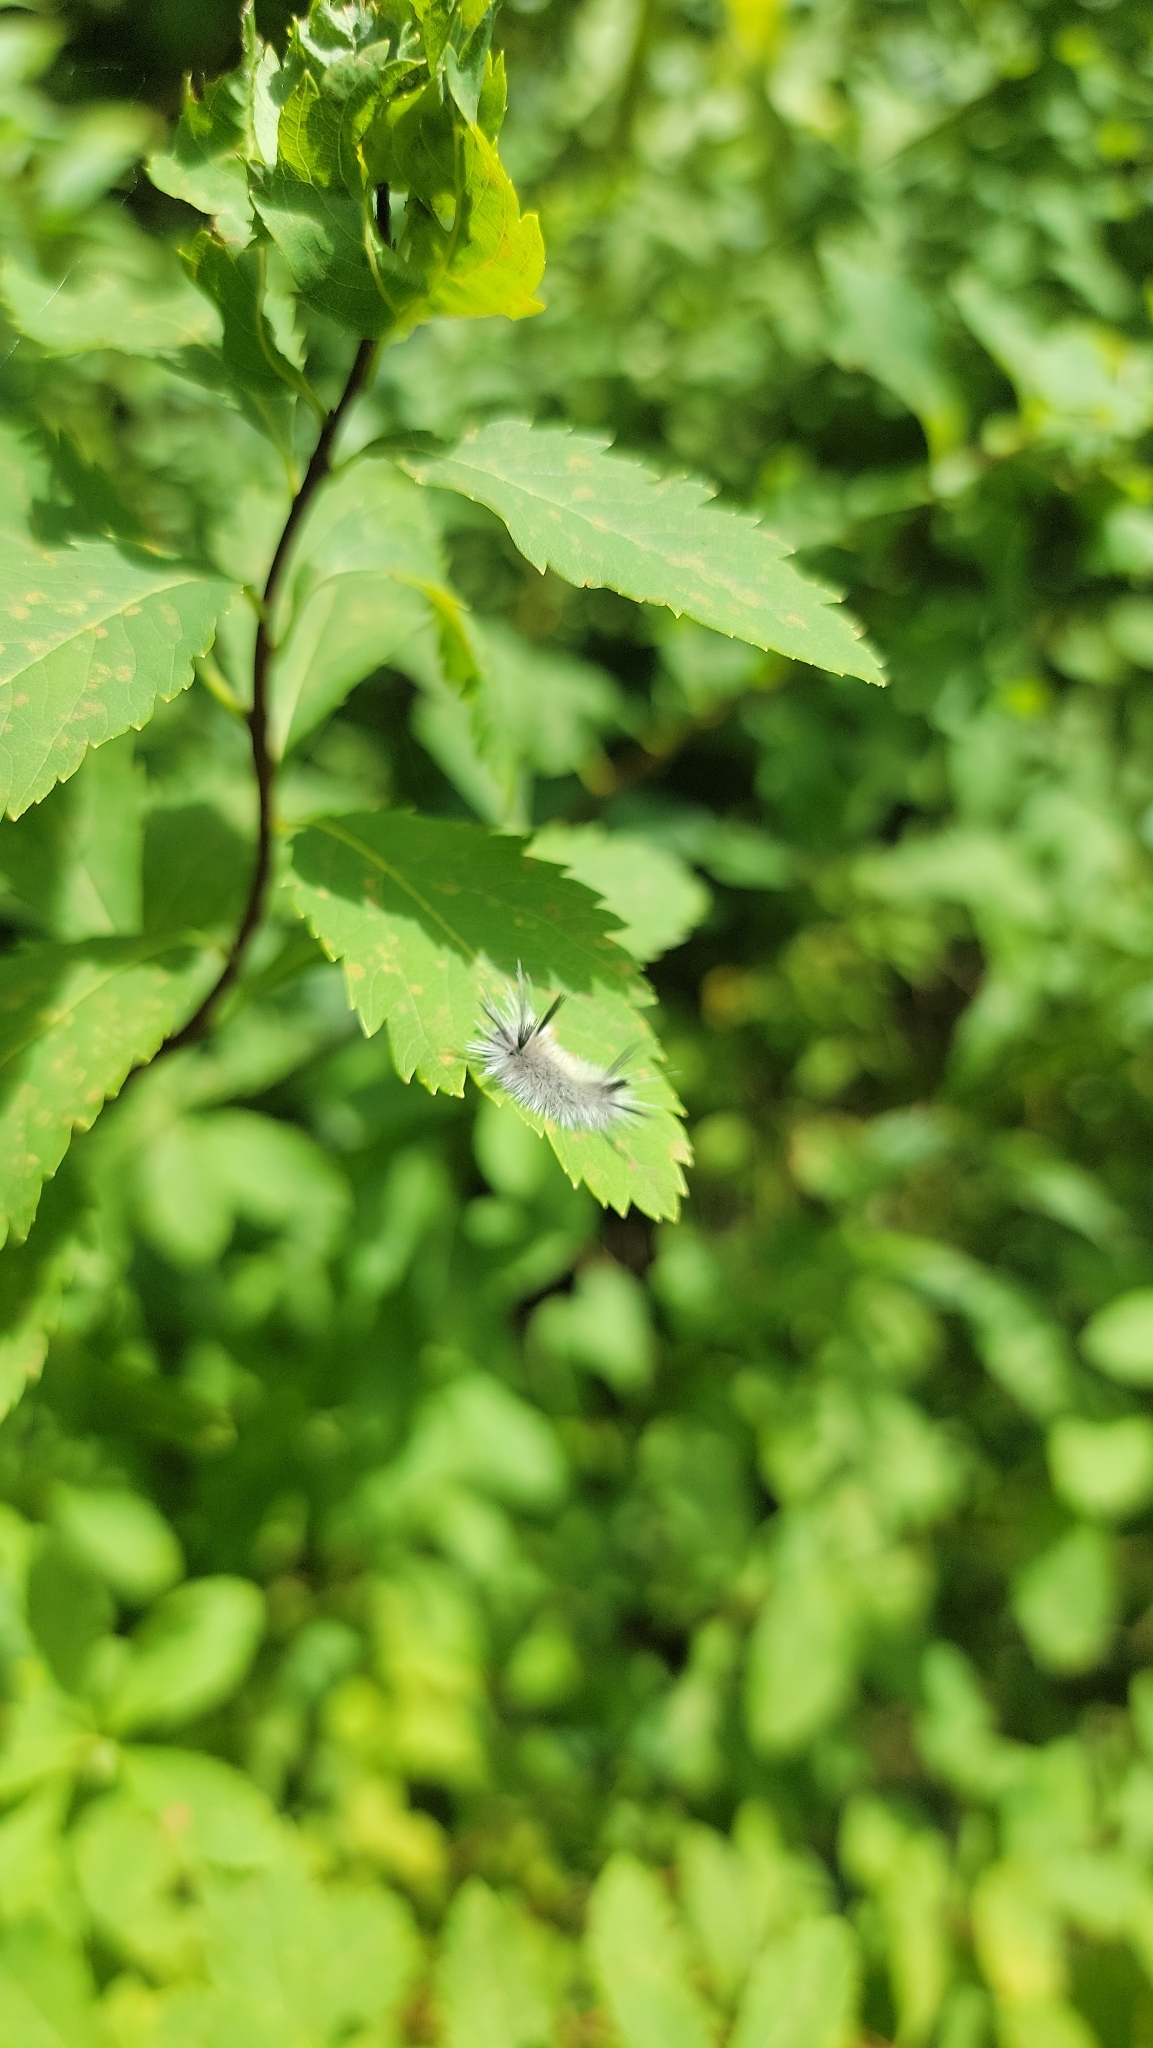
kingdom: Animalia
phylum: Arthropoda
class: Insecta
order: Lepidoptera
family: Erebidae
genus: Halysidota
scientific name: Halysidota tessellaris
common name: Banded tussock moth
